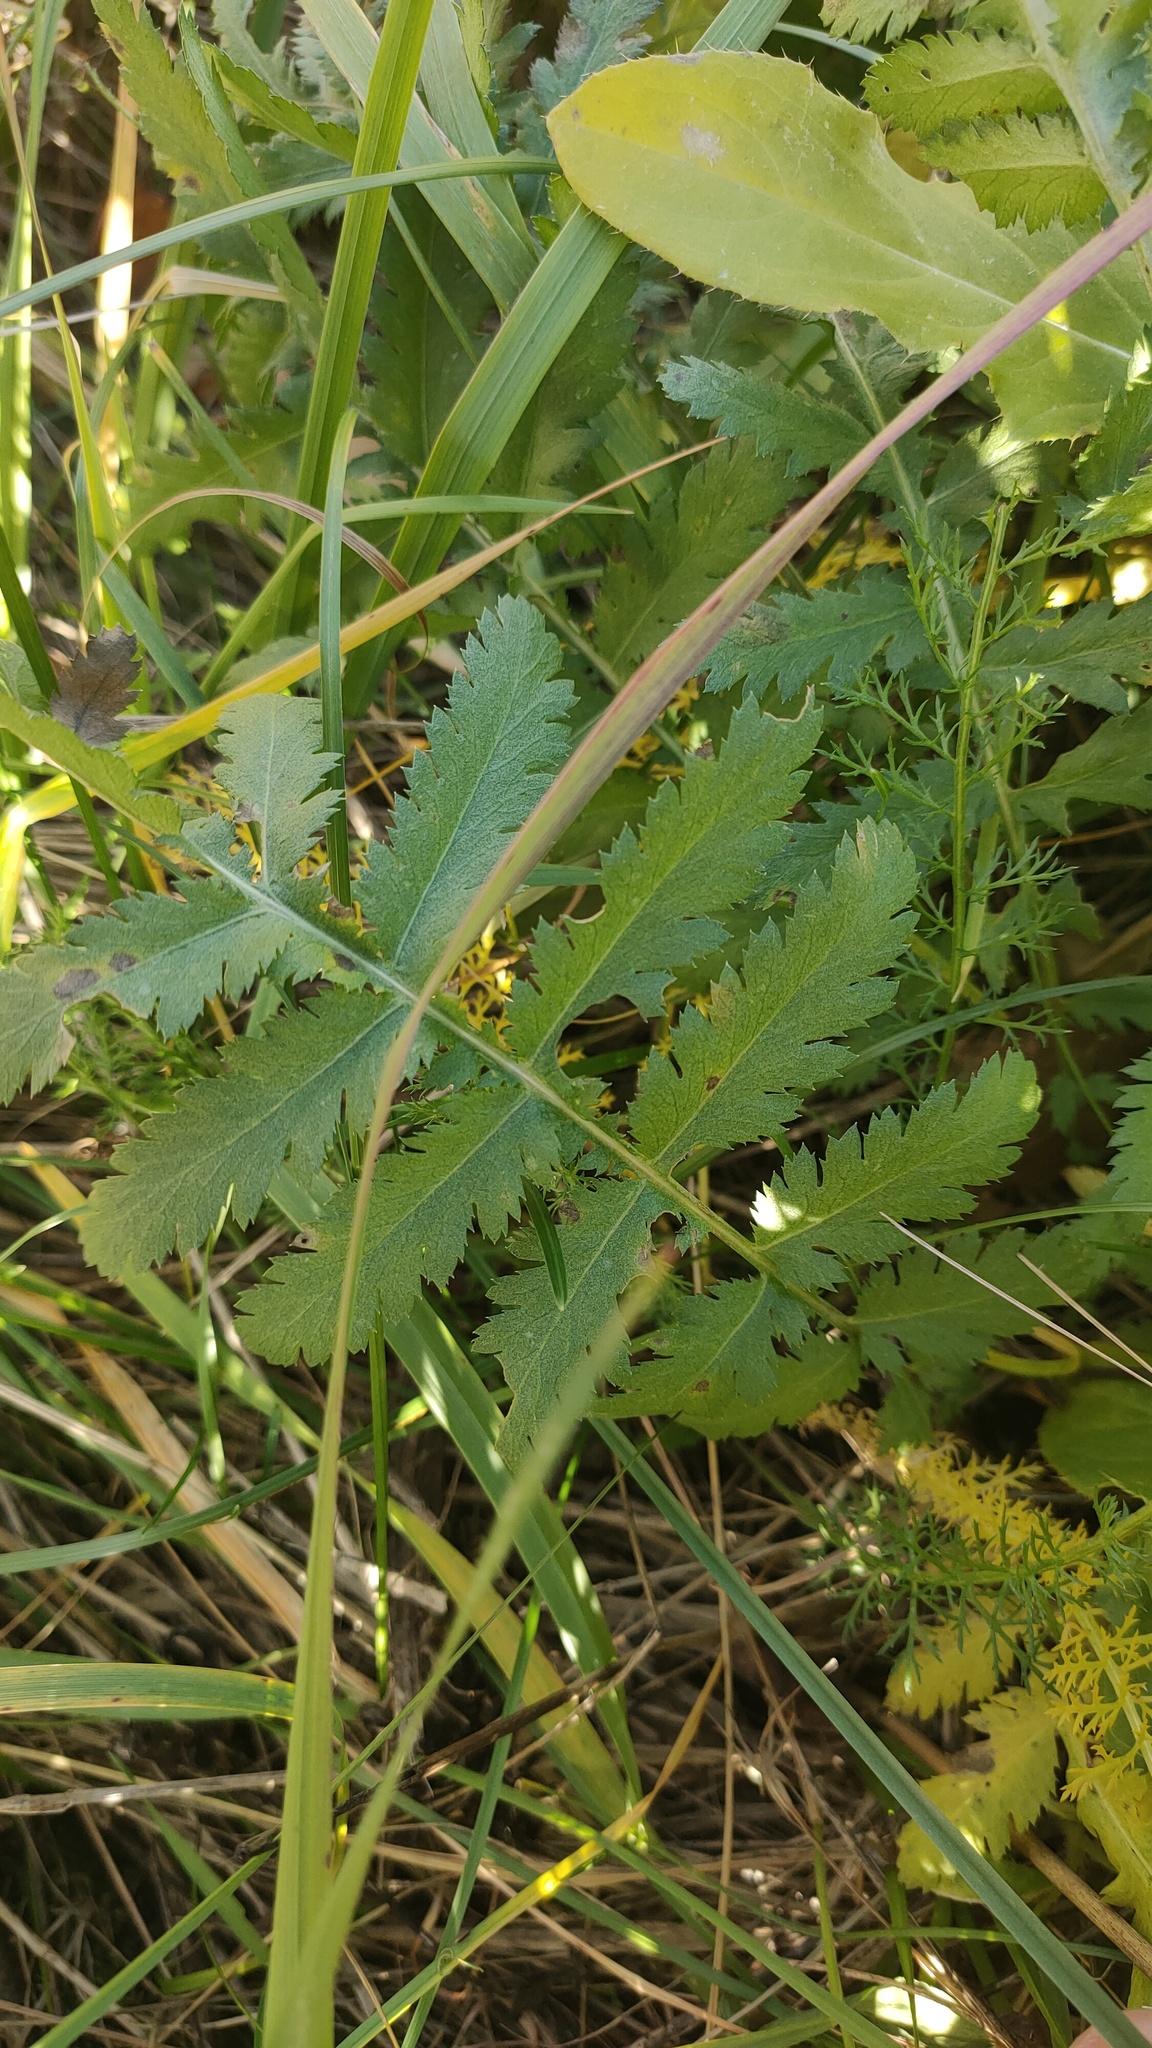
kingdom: Plantae
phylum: Tracheophyta
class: Magnoliopsida
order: Asterales
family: Asteraceae
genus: Tanacetum
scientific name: Tanacetum vulgare
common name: Common tansy
